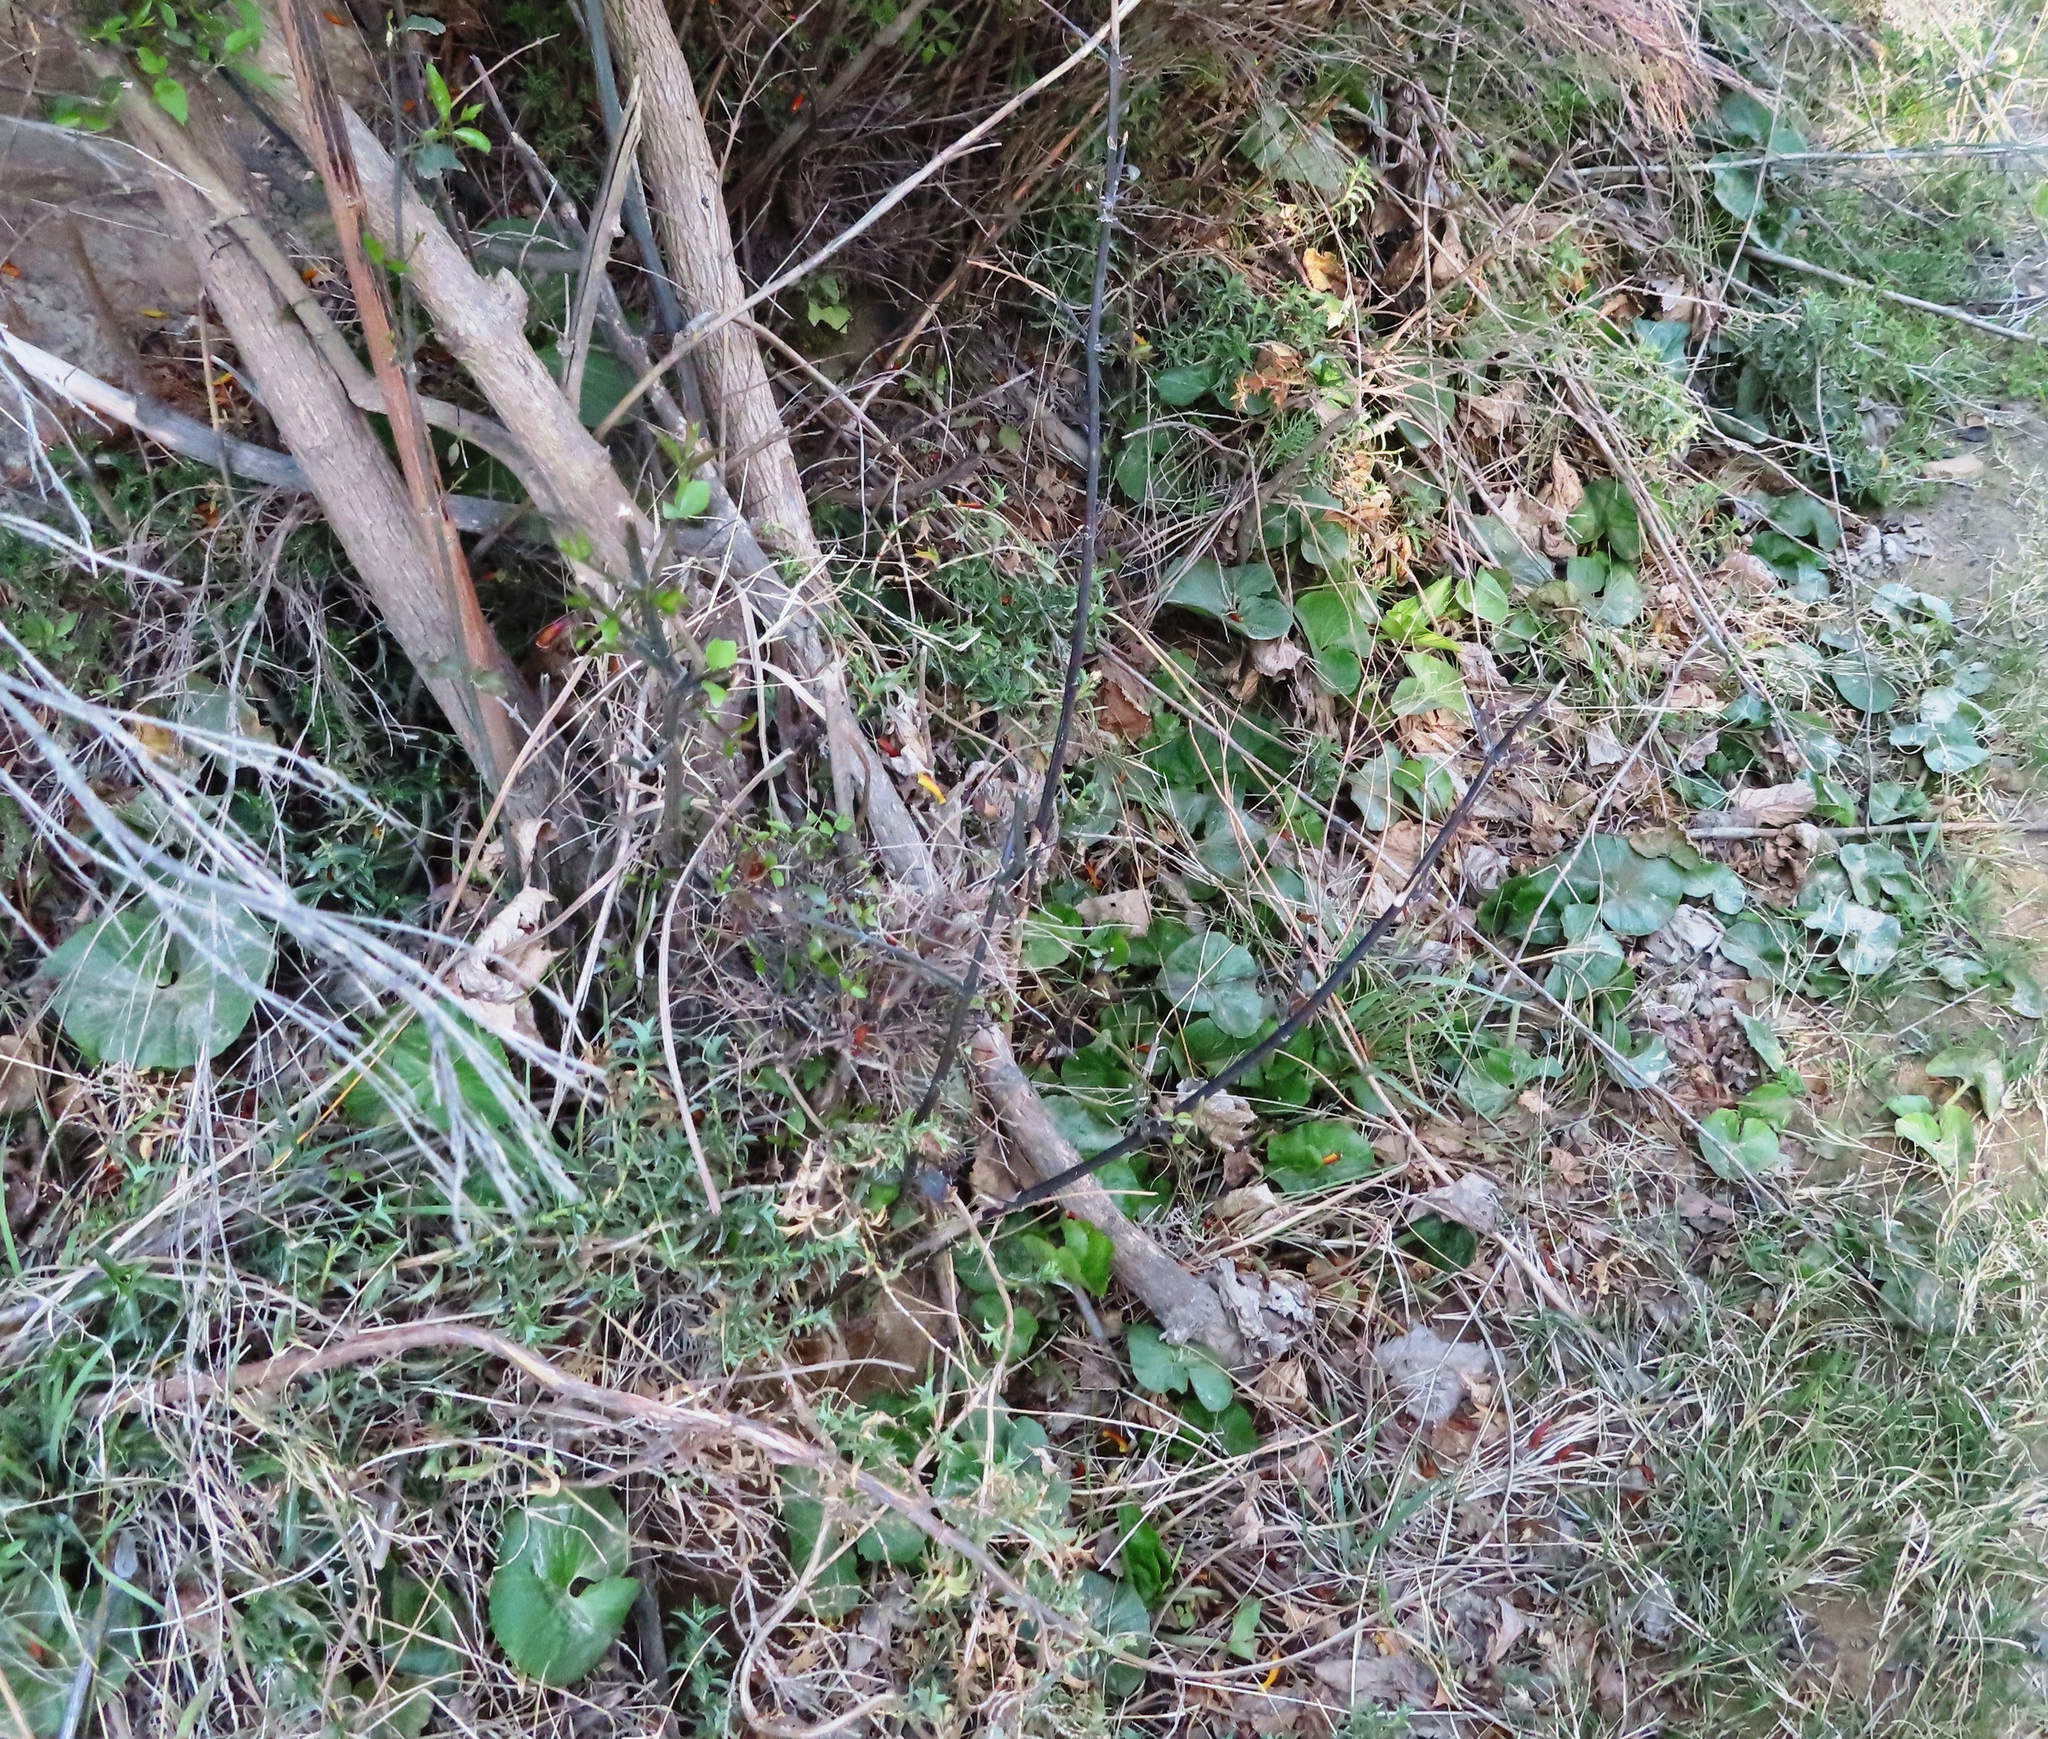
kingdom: Plantae
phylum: Tracheophyta
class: Magnoliopsida
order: Gunnerales
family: Gunneraceae
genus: Gunnera
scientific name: Gunnera perpensa
